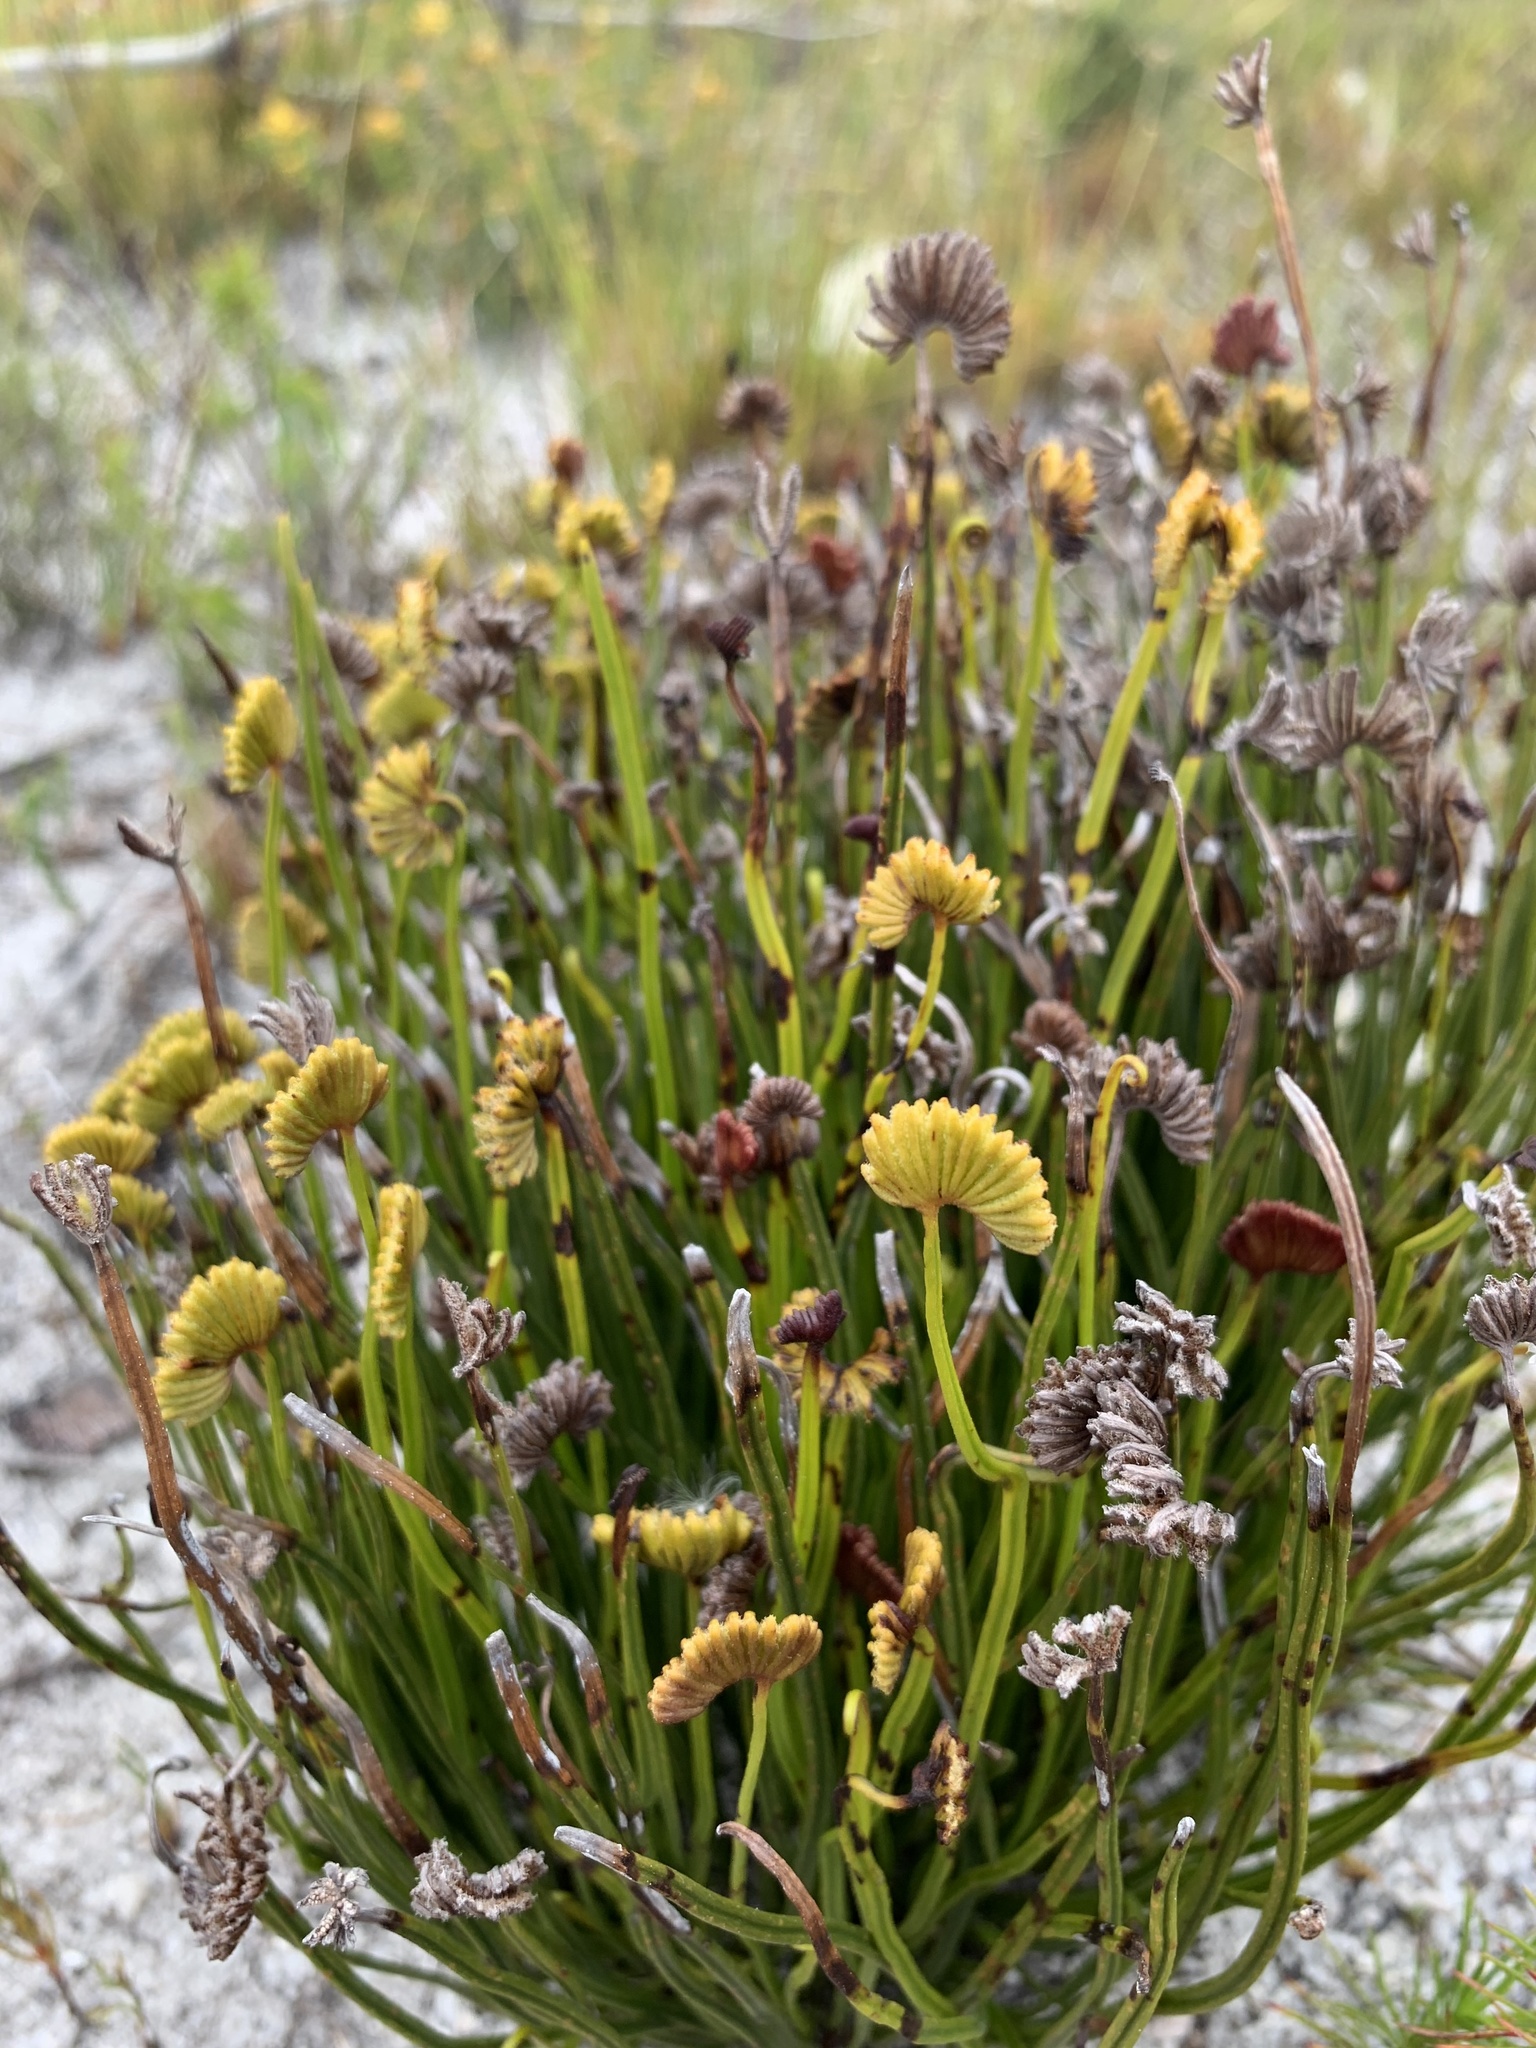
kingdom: Plantae
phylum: Tracheophyta
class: Polypodiopsida
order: Schizaeales
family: Schizaeaceae
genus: Schizaea
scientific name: Schizaea pectinata
